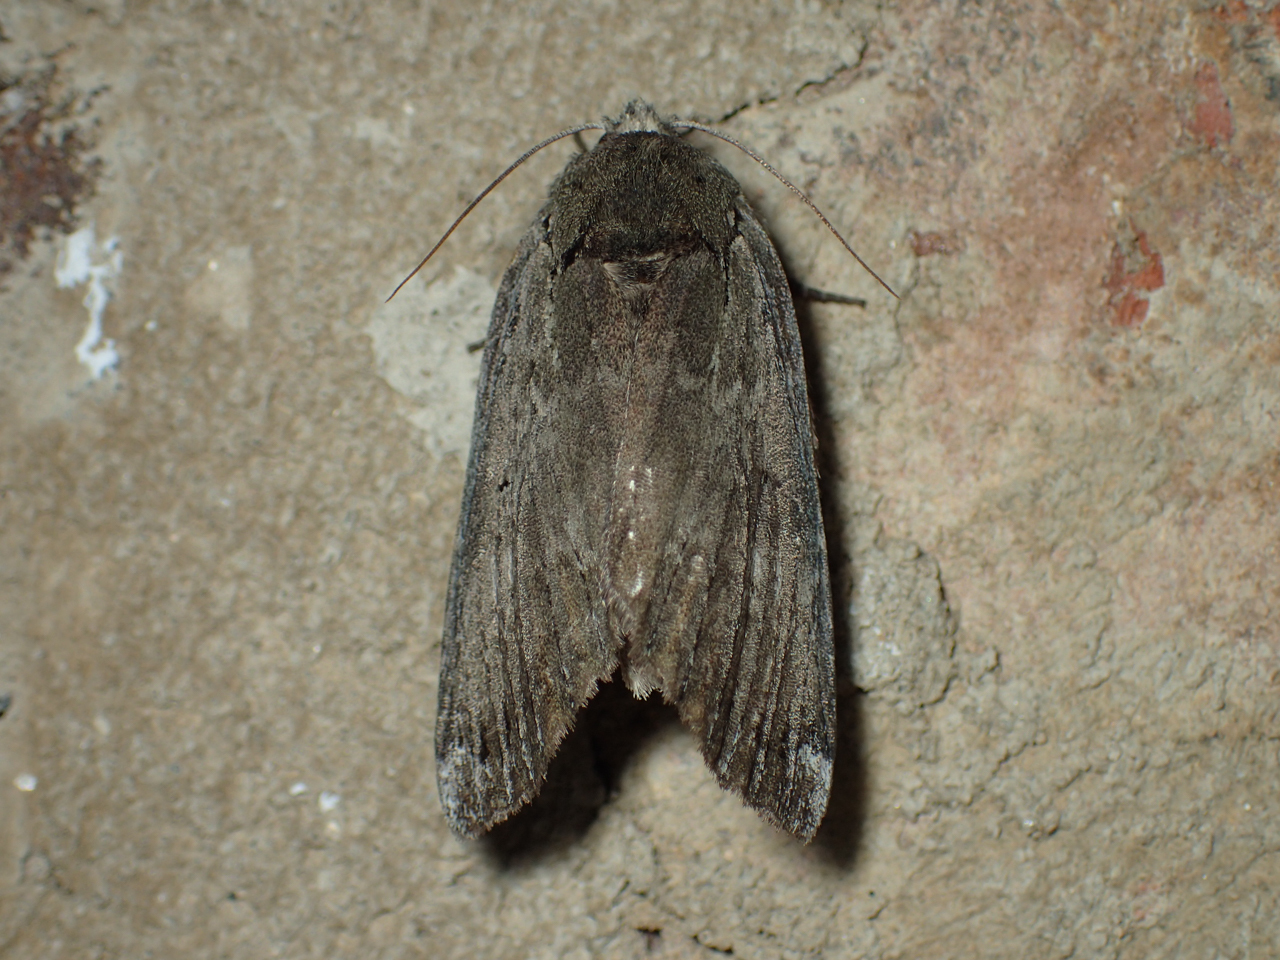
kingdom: Animalia
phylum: Arthropoda
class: Insecta
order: Lepidoptera
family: Notodontidae
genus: Schizura
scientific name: Schizura
